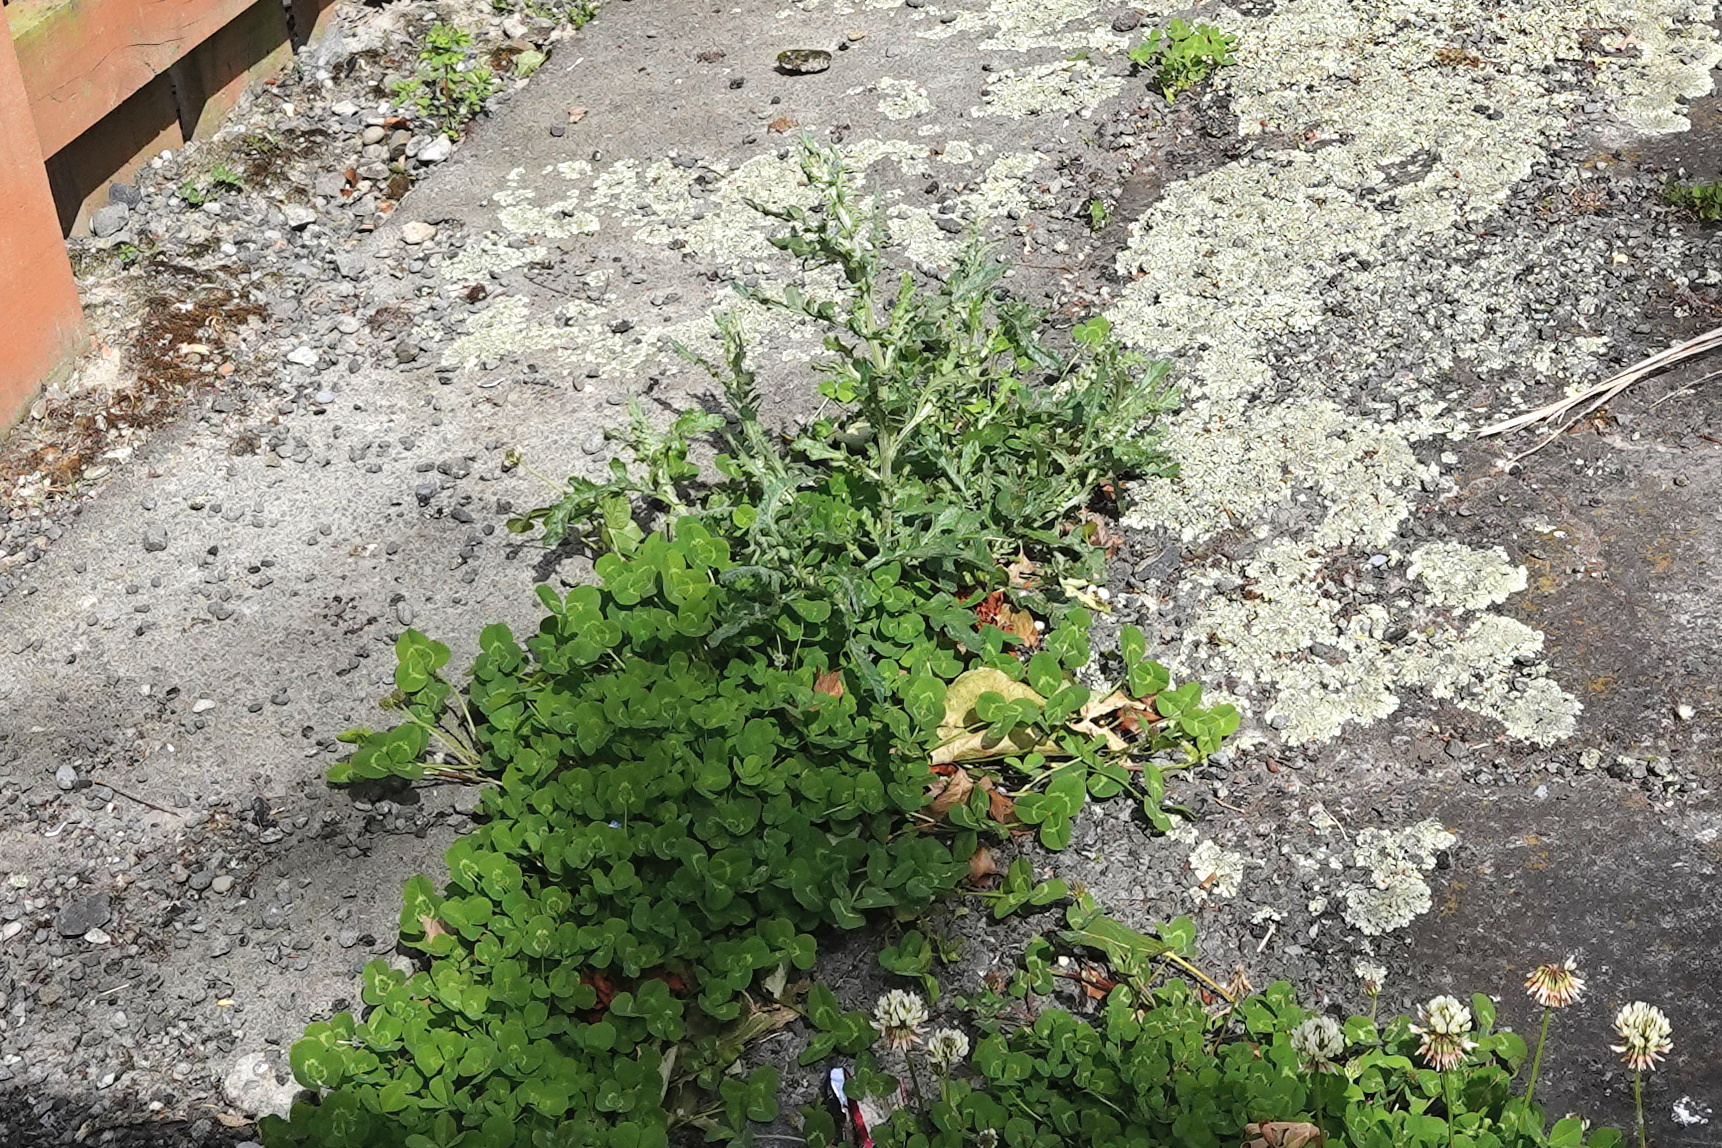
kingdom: Plantae
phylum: Tracheophyta
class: Magnoliopsida
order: Asterales
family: Asteraceae
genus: Senecio
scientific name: Senecio glomeratus
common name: Cutleaf burnweed
